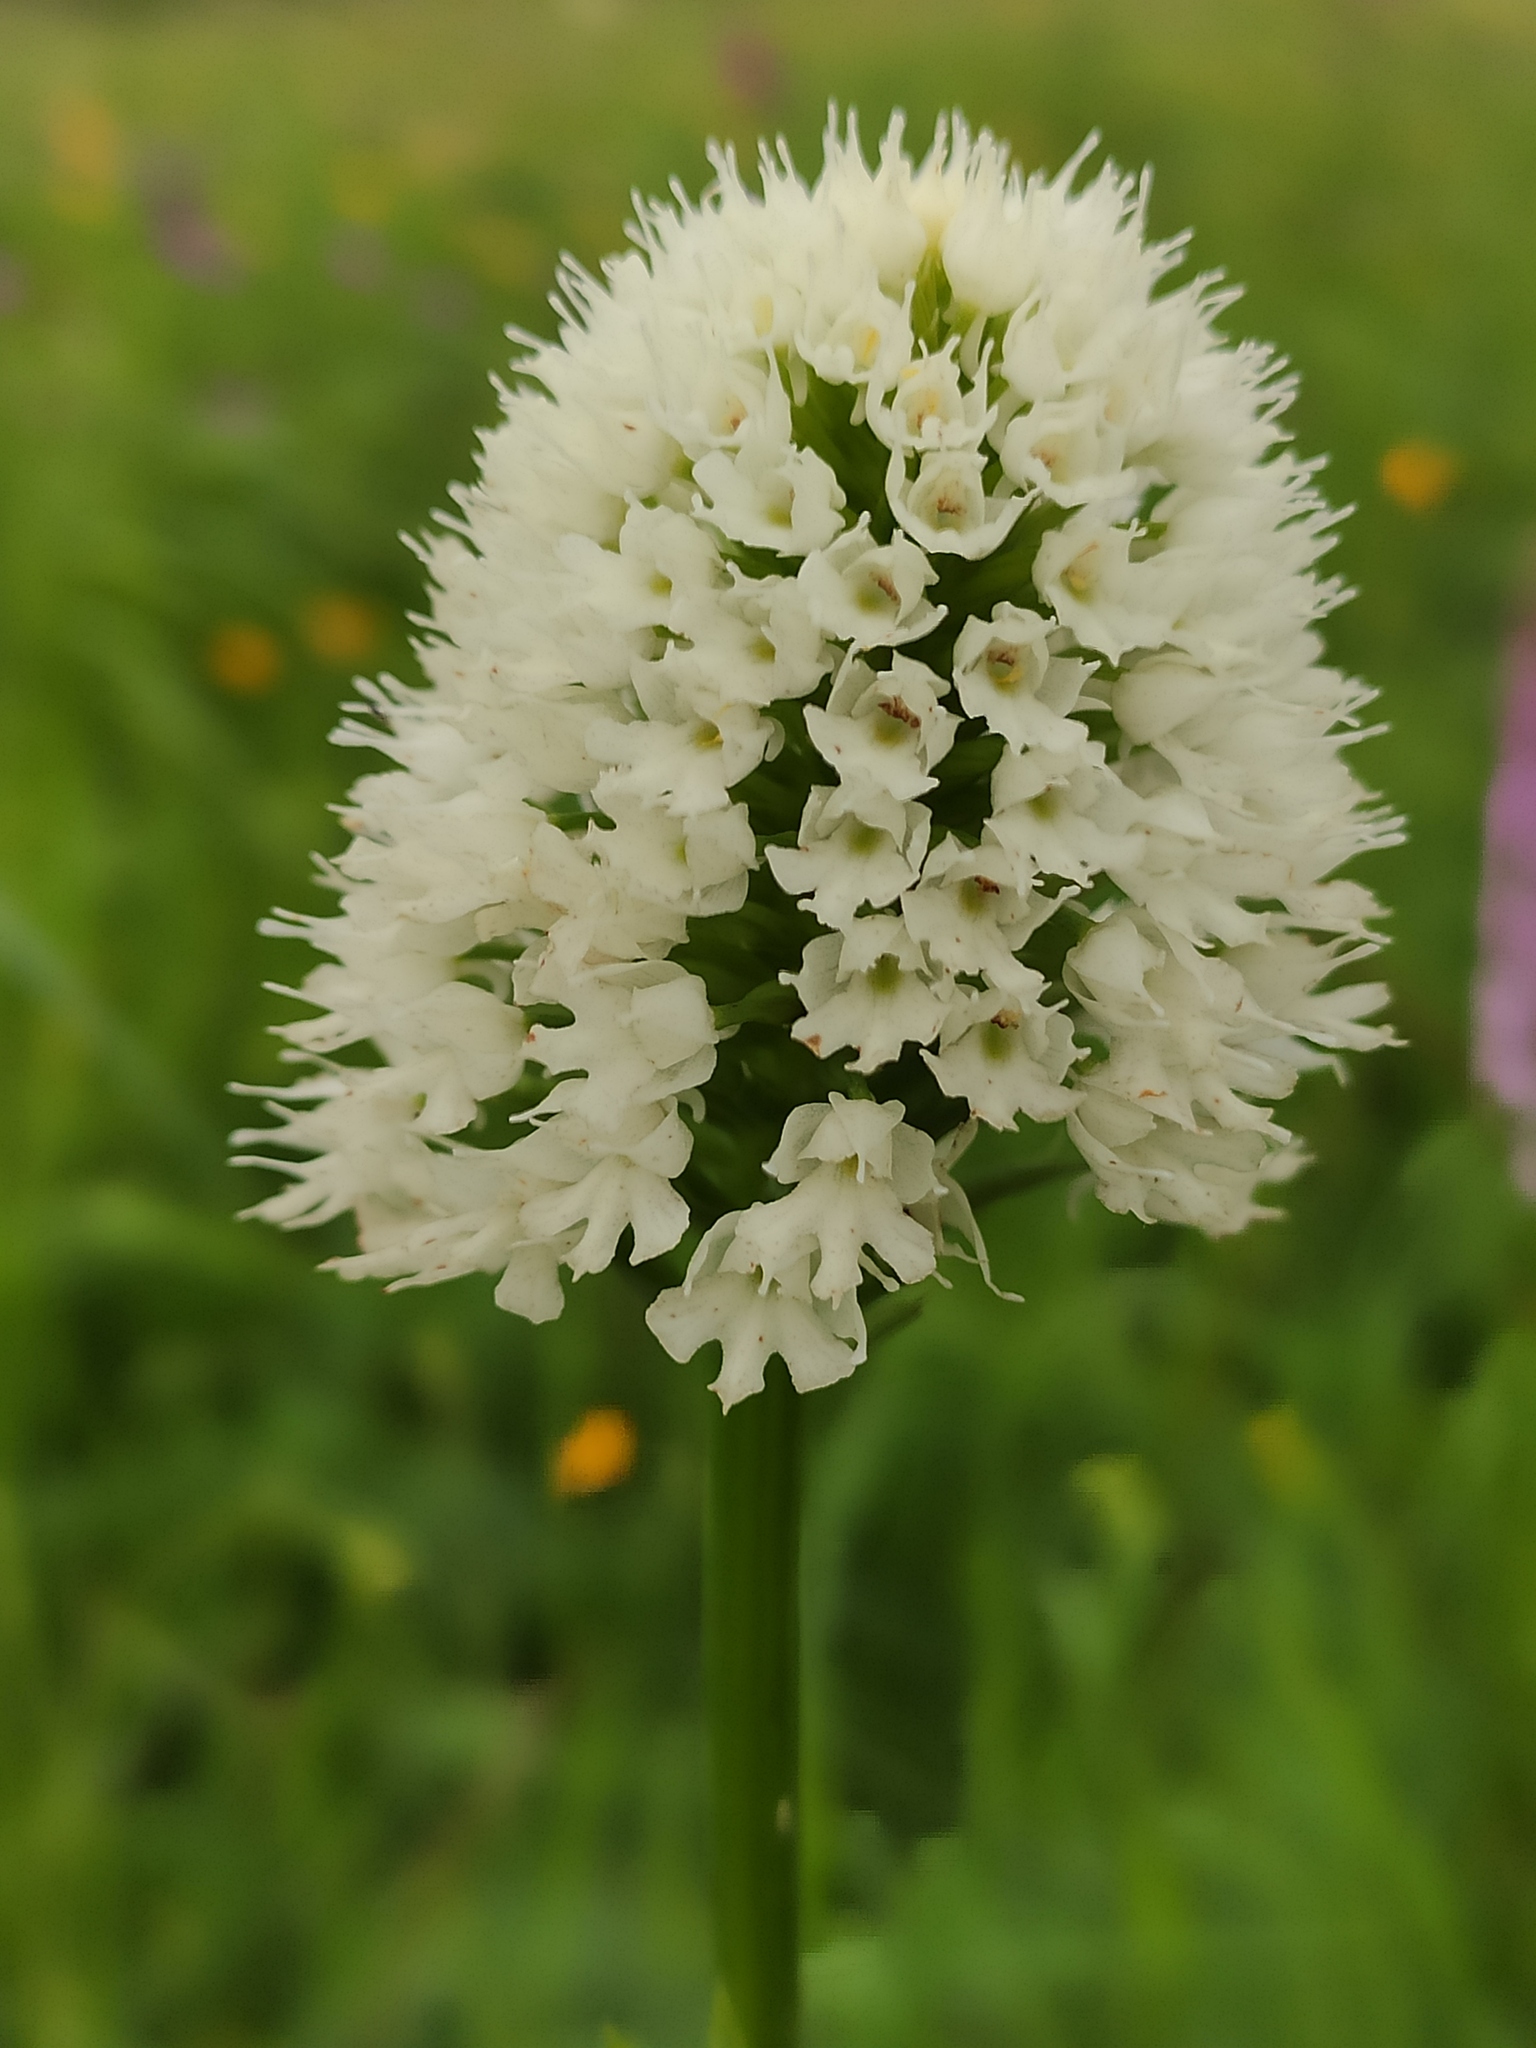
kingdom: Plantae
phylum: Tracheophyta
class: Liliopsida
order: Asparagales
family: Orchidaceae
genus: Traunsteinera
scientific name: Traunsteinera sphaerica
